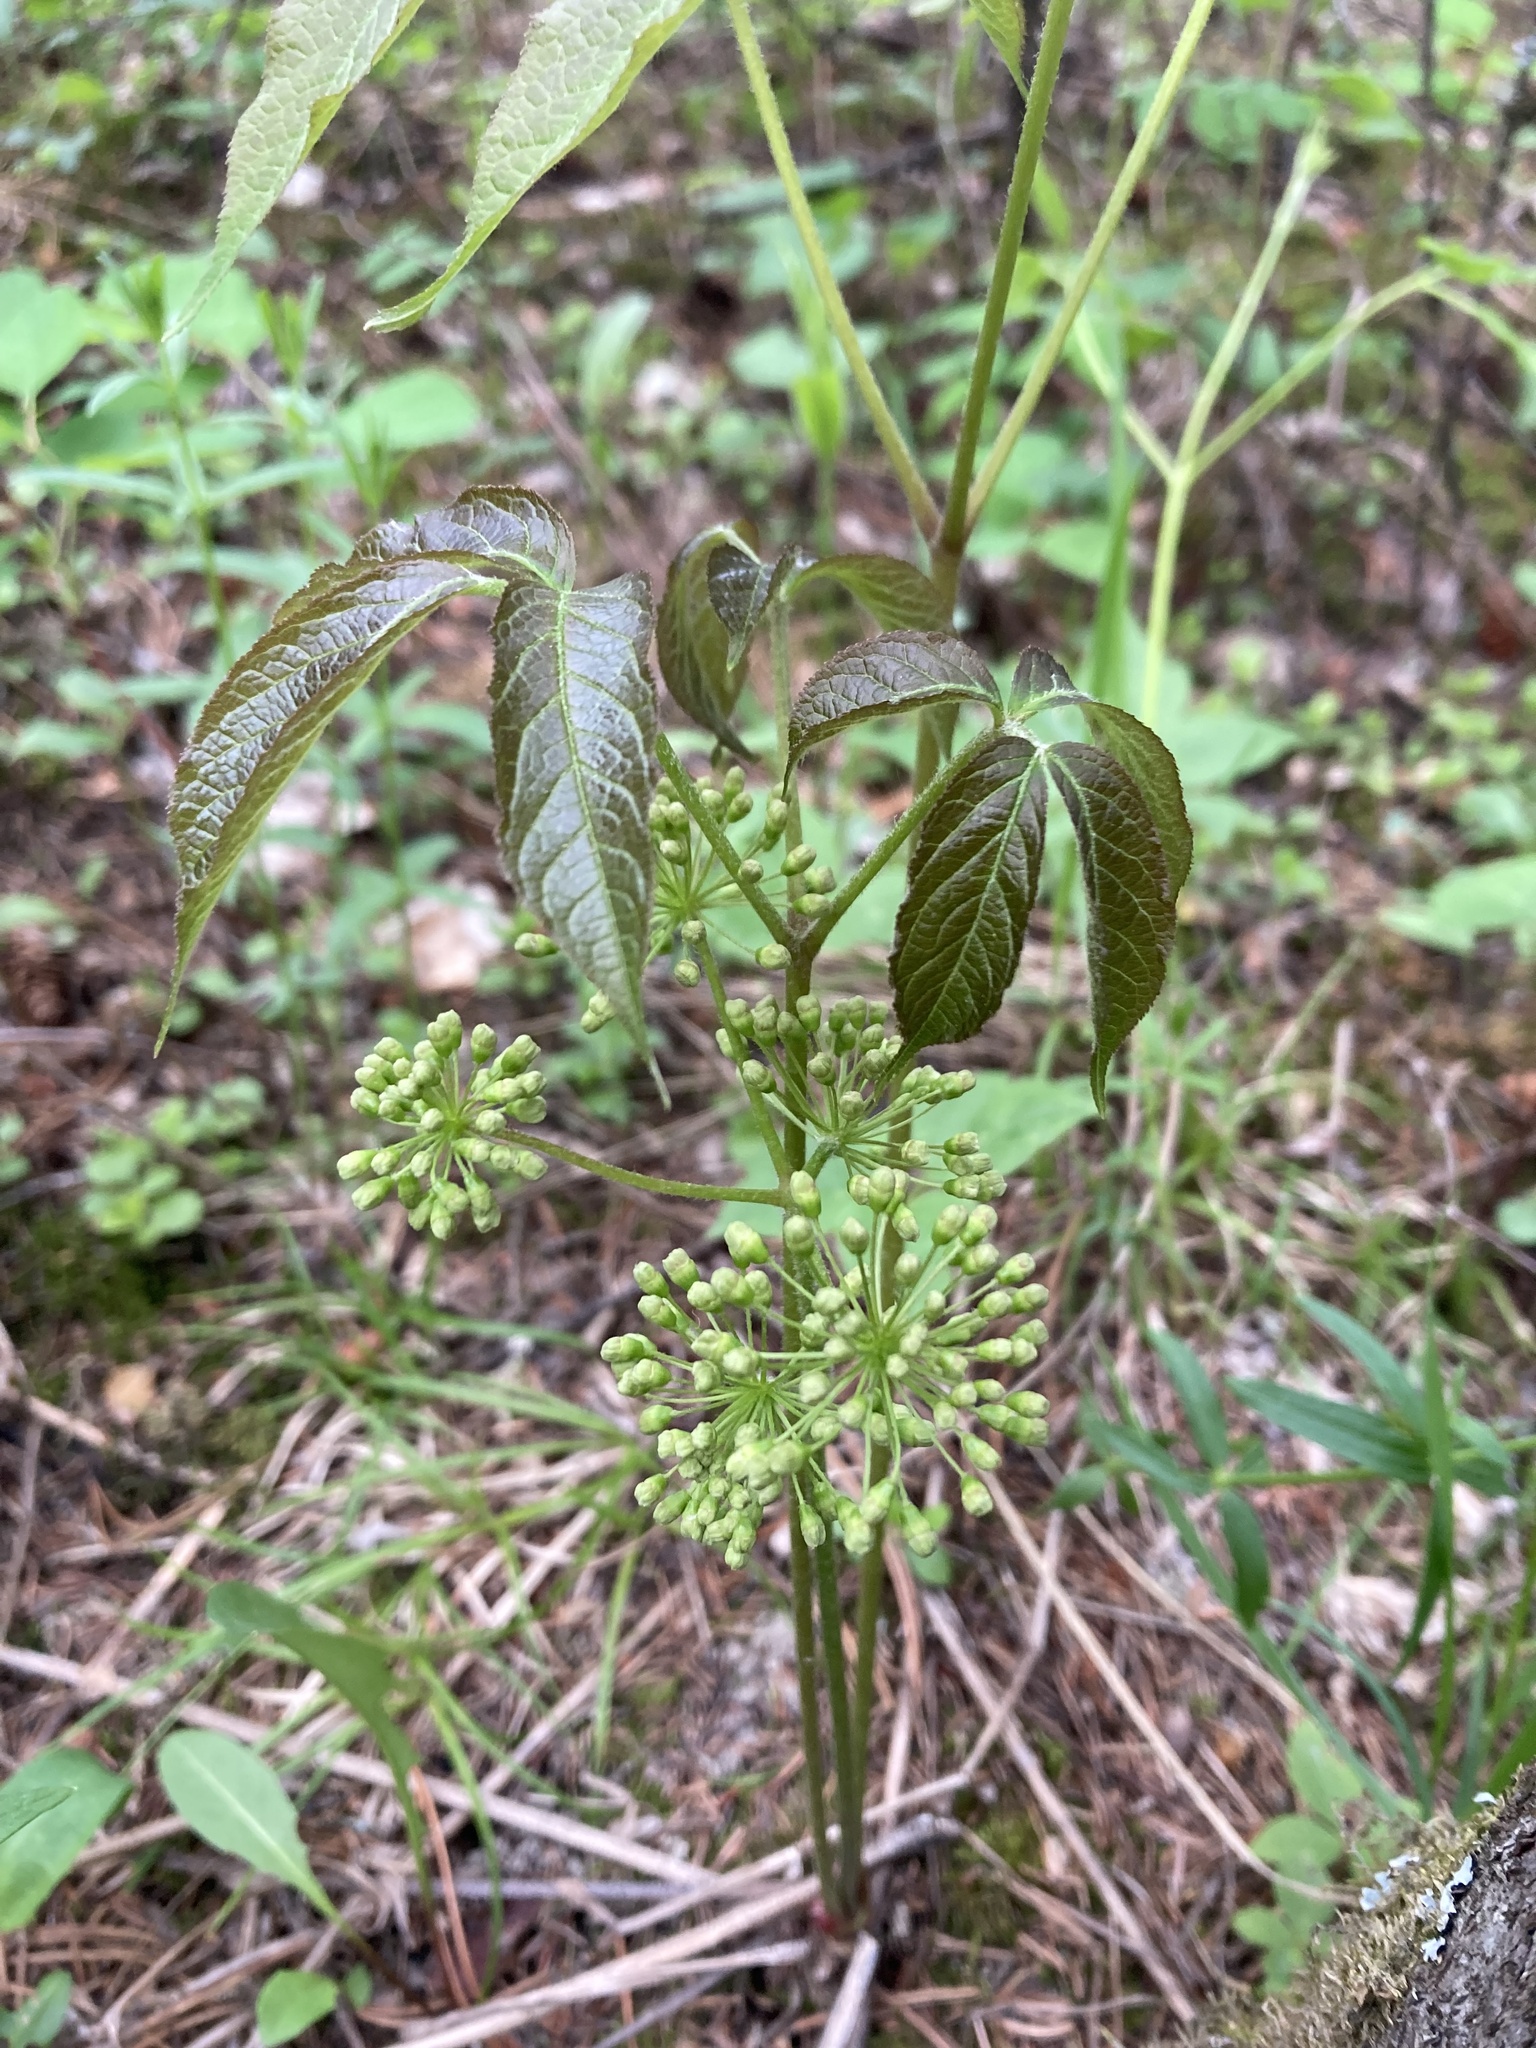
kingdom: Plantae
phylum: Tracheophyta
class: Magnoliopsida
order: Apiales
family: Araliaceae
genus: Aralia
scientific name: Aralia nudicaulis
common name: Wild sarsaparilla
